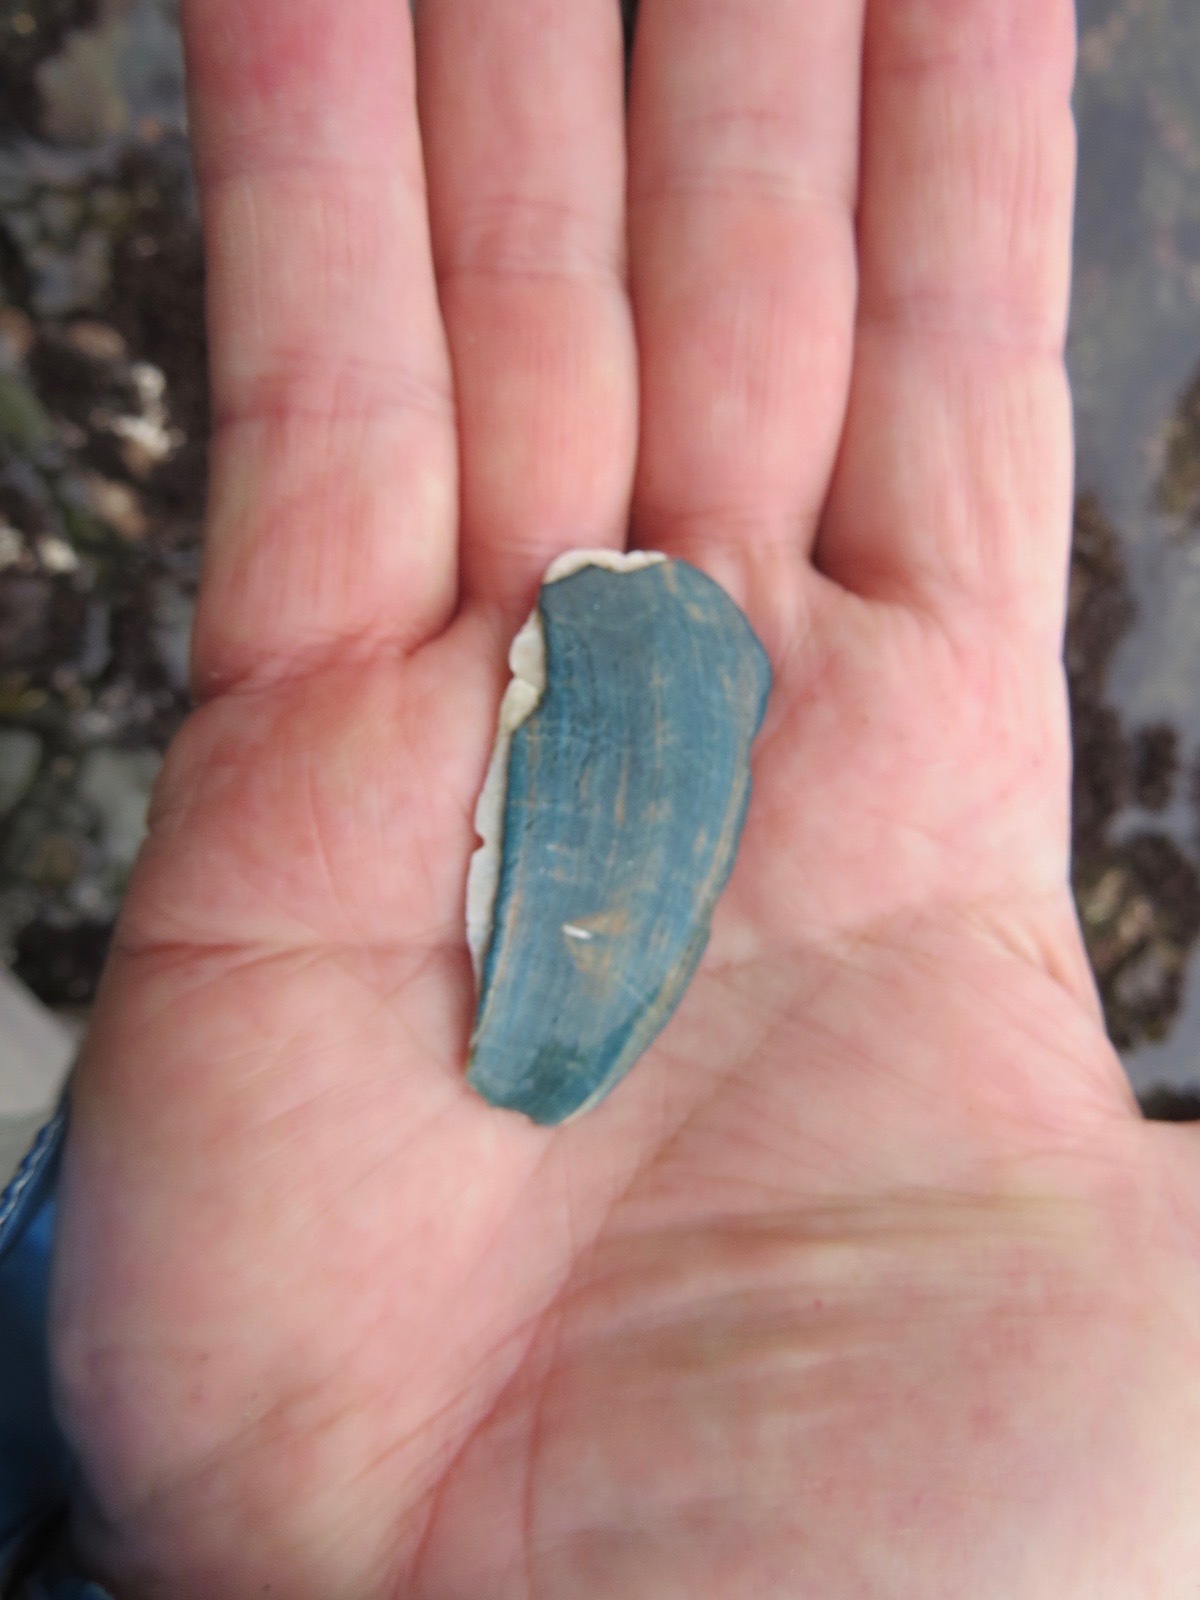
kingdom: Animalia
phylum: Mollusca
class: Gastropoda
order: Lepetellida
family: Haliotidae
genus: Haliotis
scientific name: Haliotis cracherodii
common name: Black abalone
